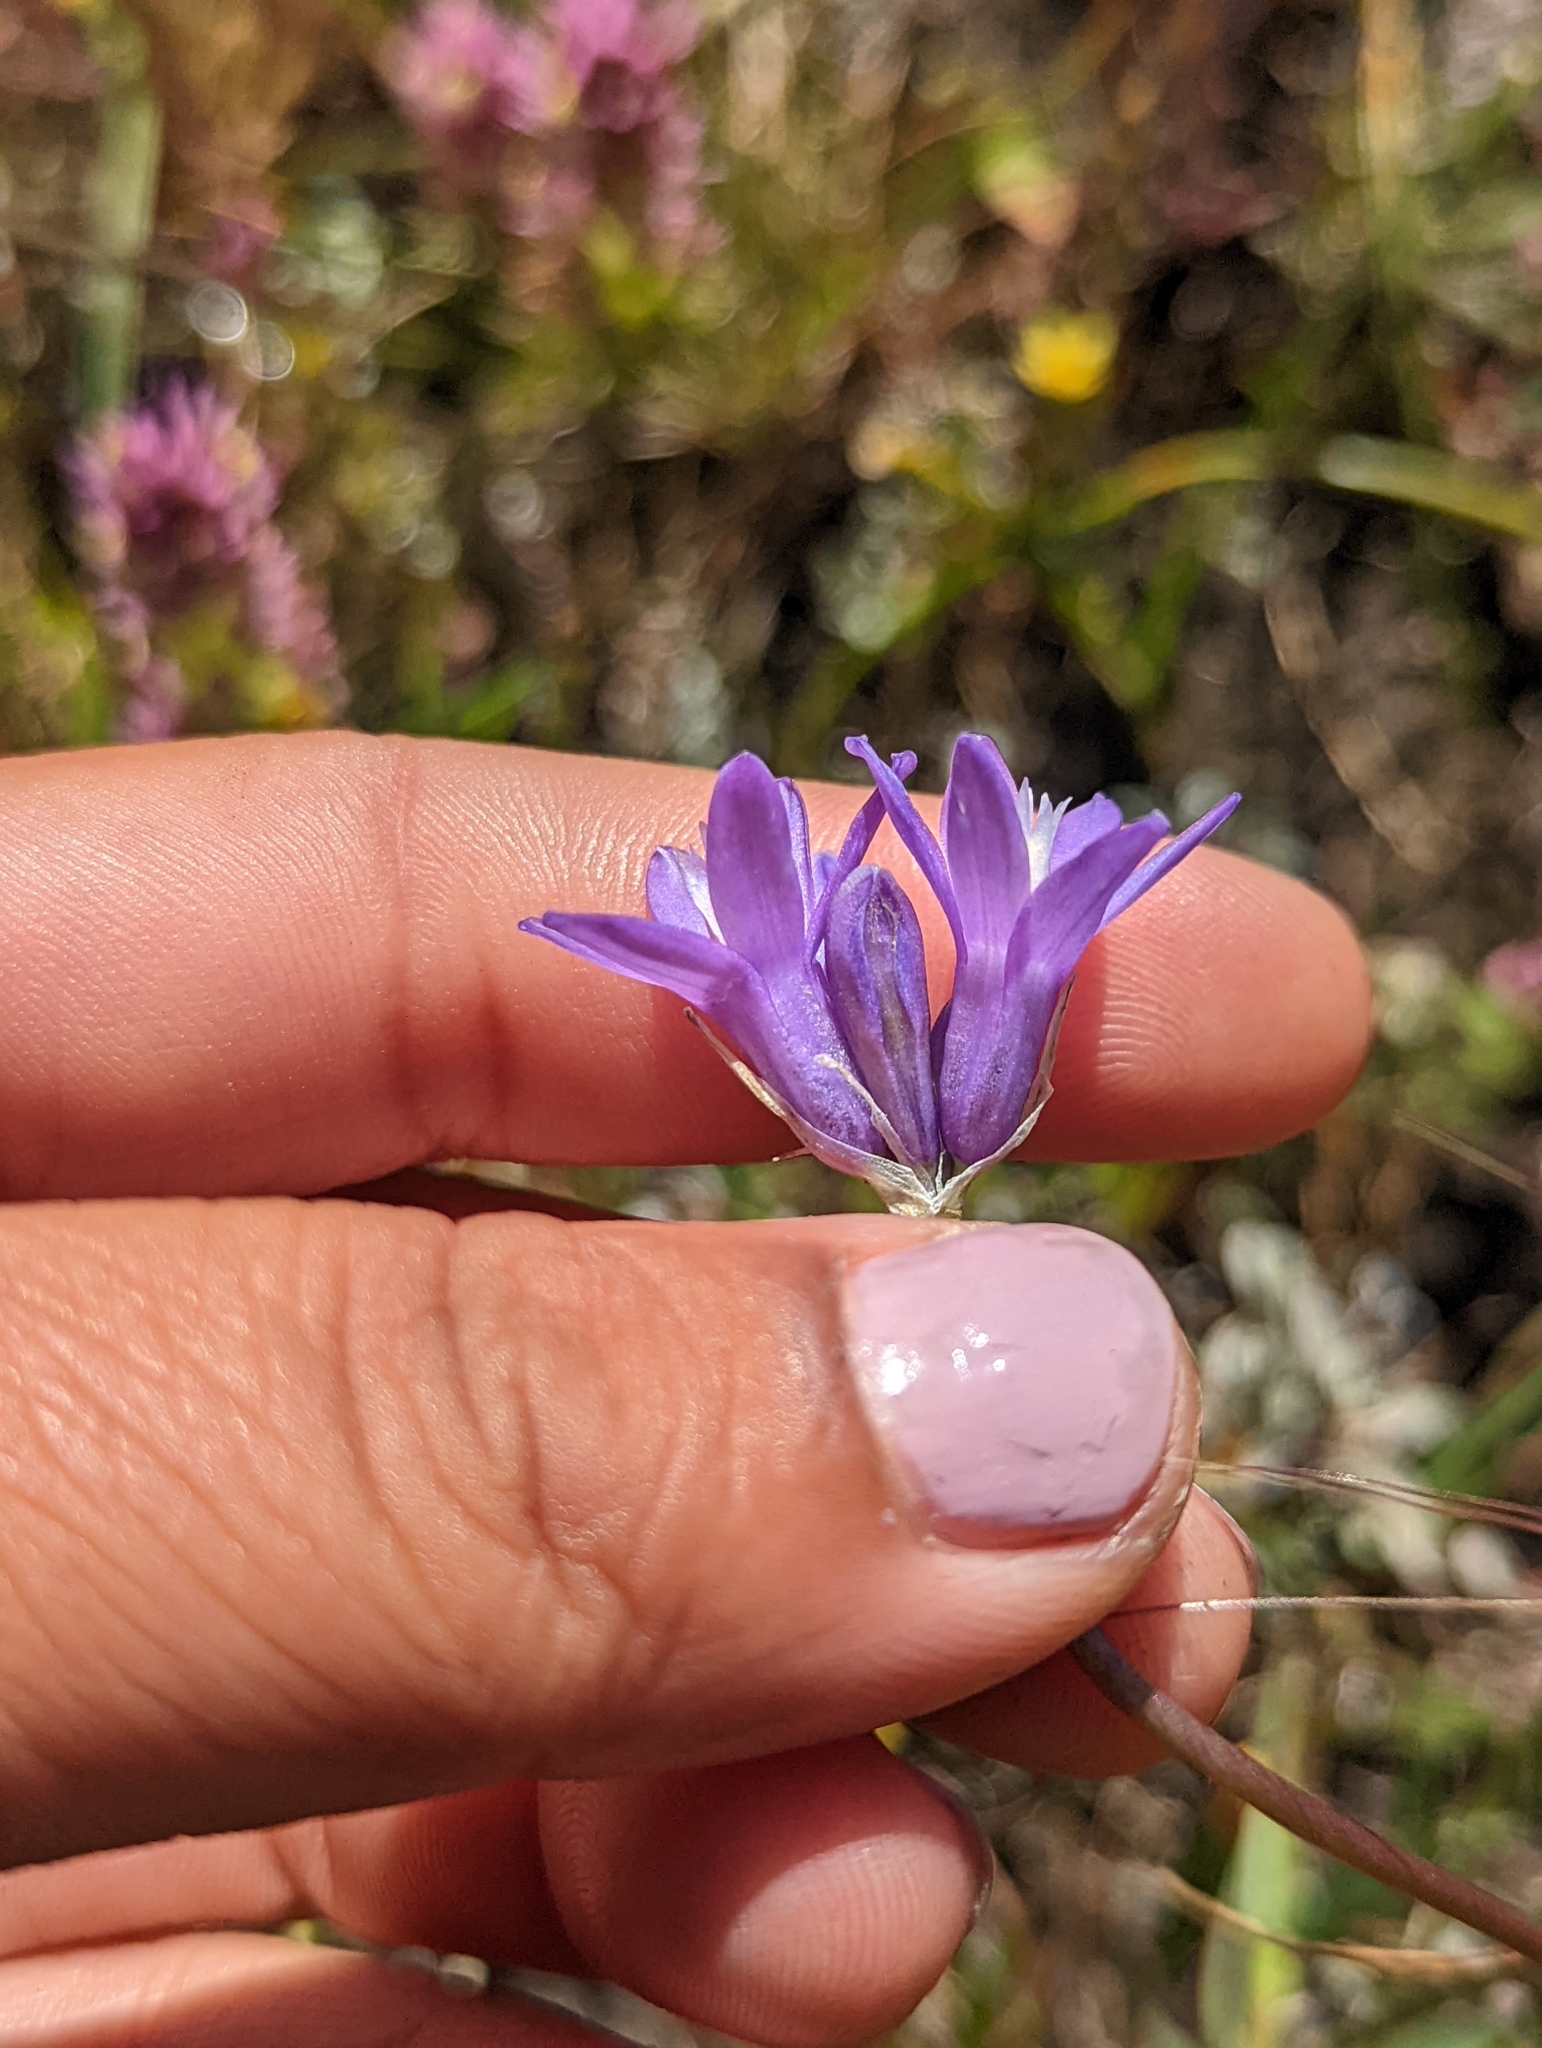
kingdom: Plantae
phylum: Tracheophyta
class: Liliopsida
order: Asparagales
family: Asparagaceae
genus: Dipterostemon
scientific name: Dipterostemon capitatus
